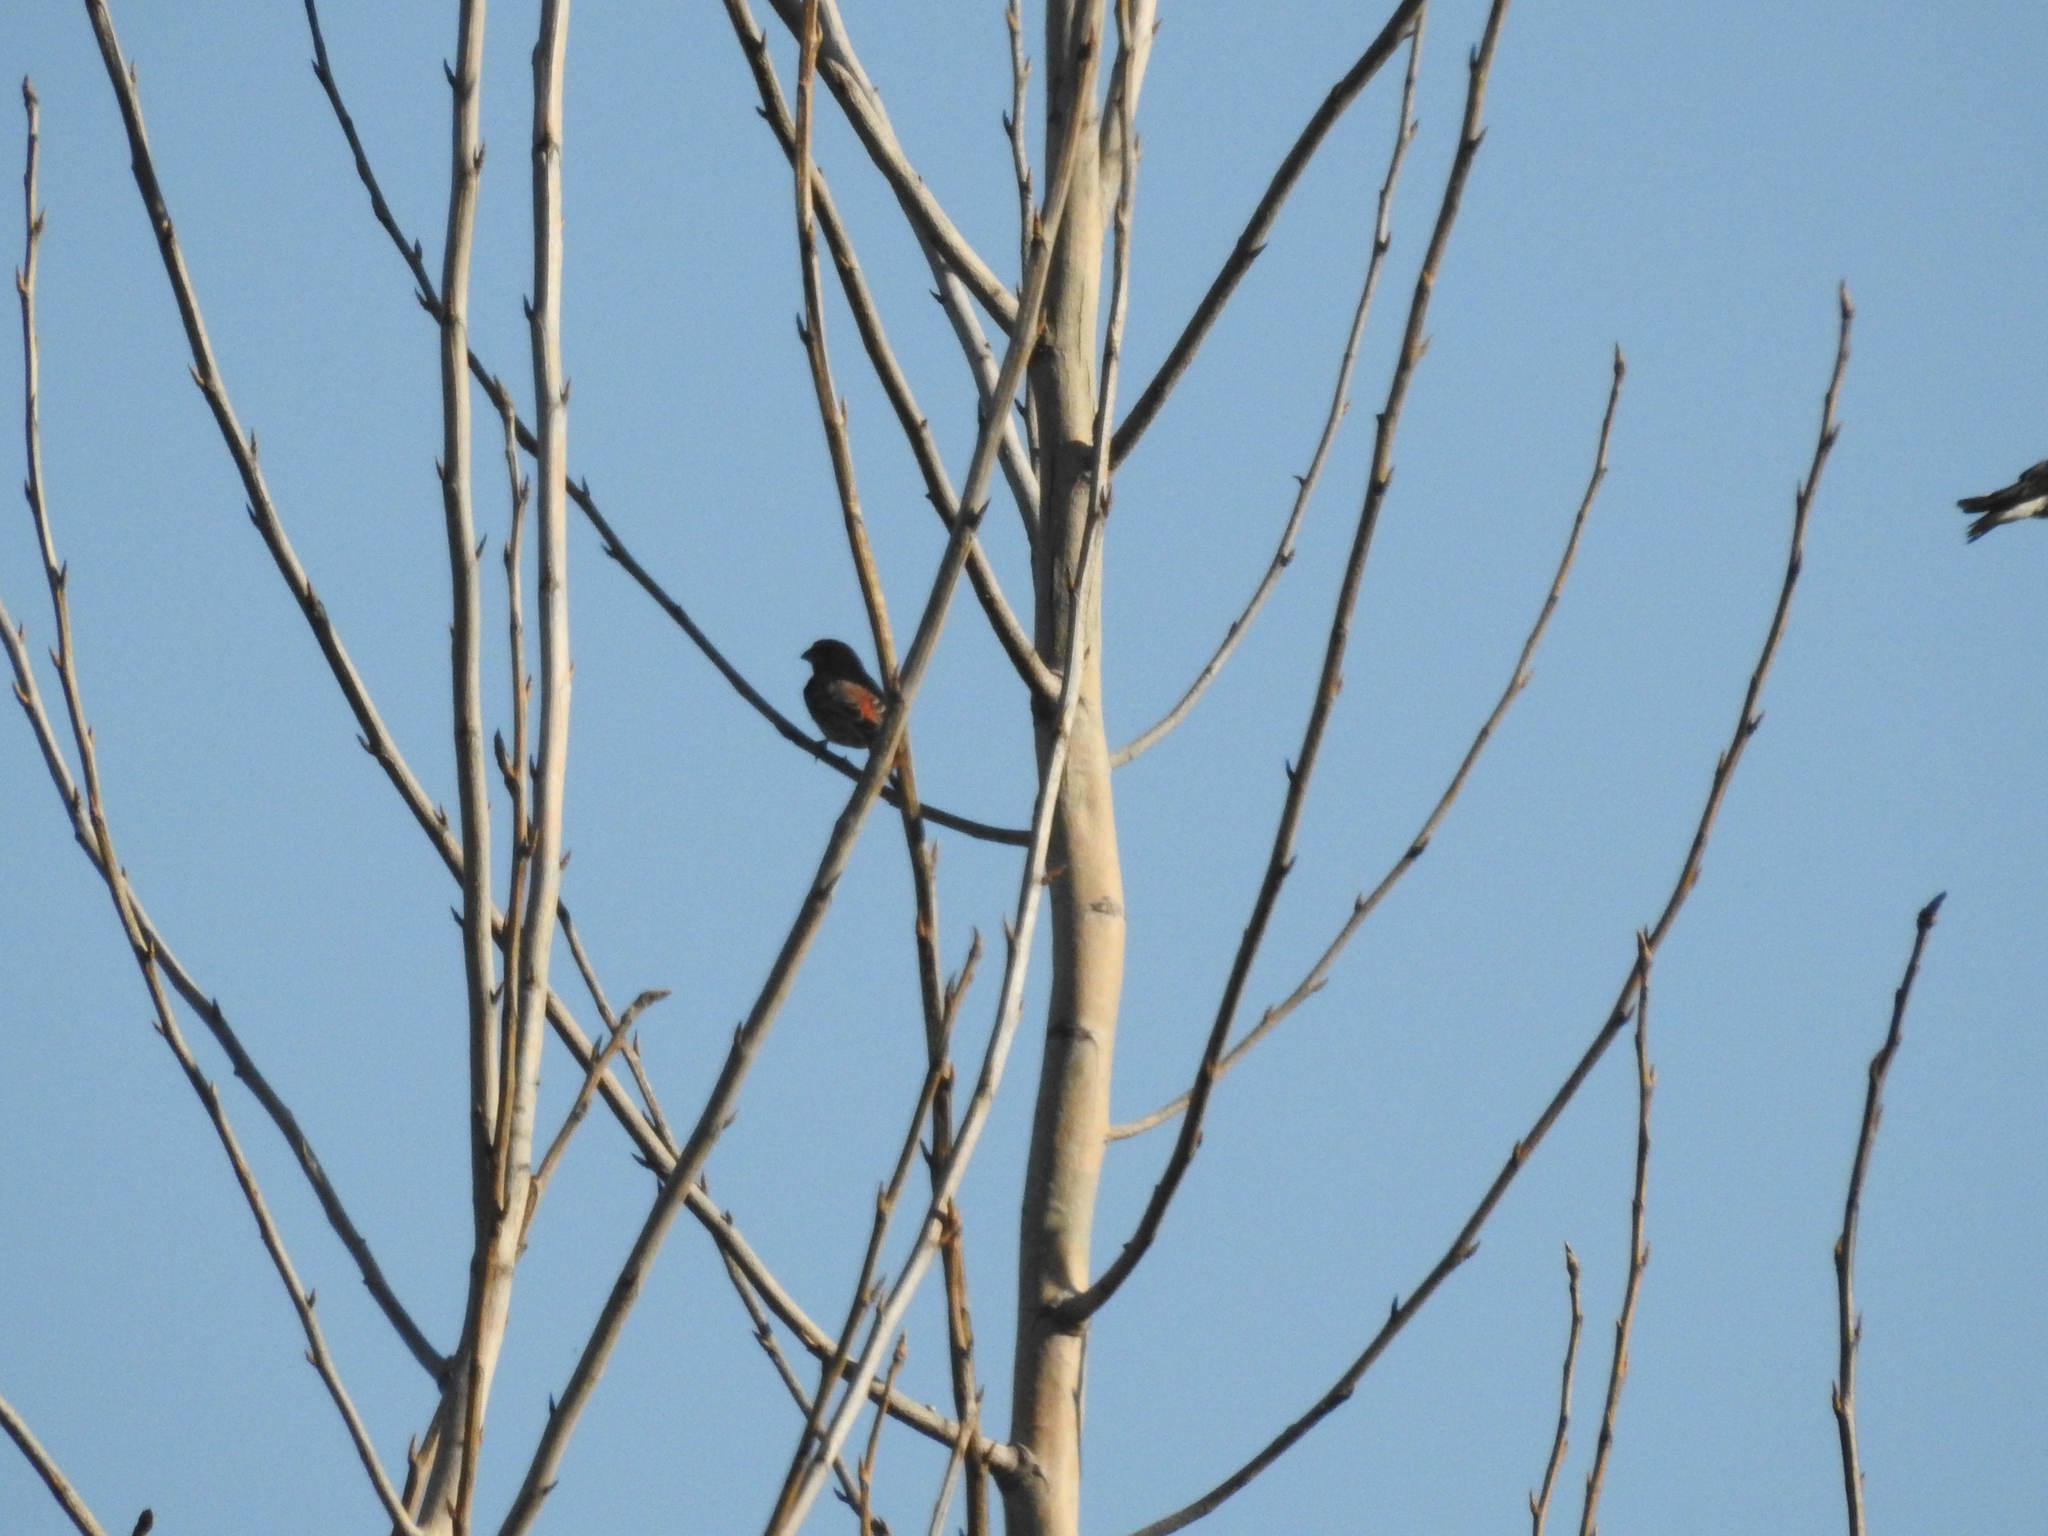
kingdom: Animalia
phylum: Chordata
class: Aves
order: Passeriformes
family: Fringillidae
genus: Haemorhous
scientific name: Haemorhous mexicanus
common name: House finch
